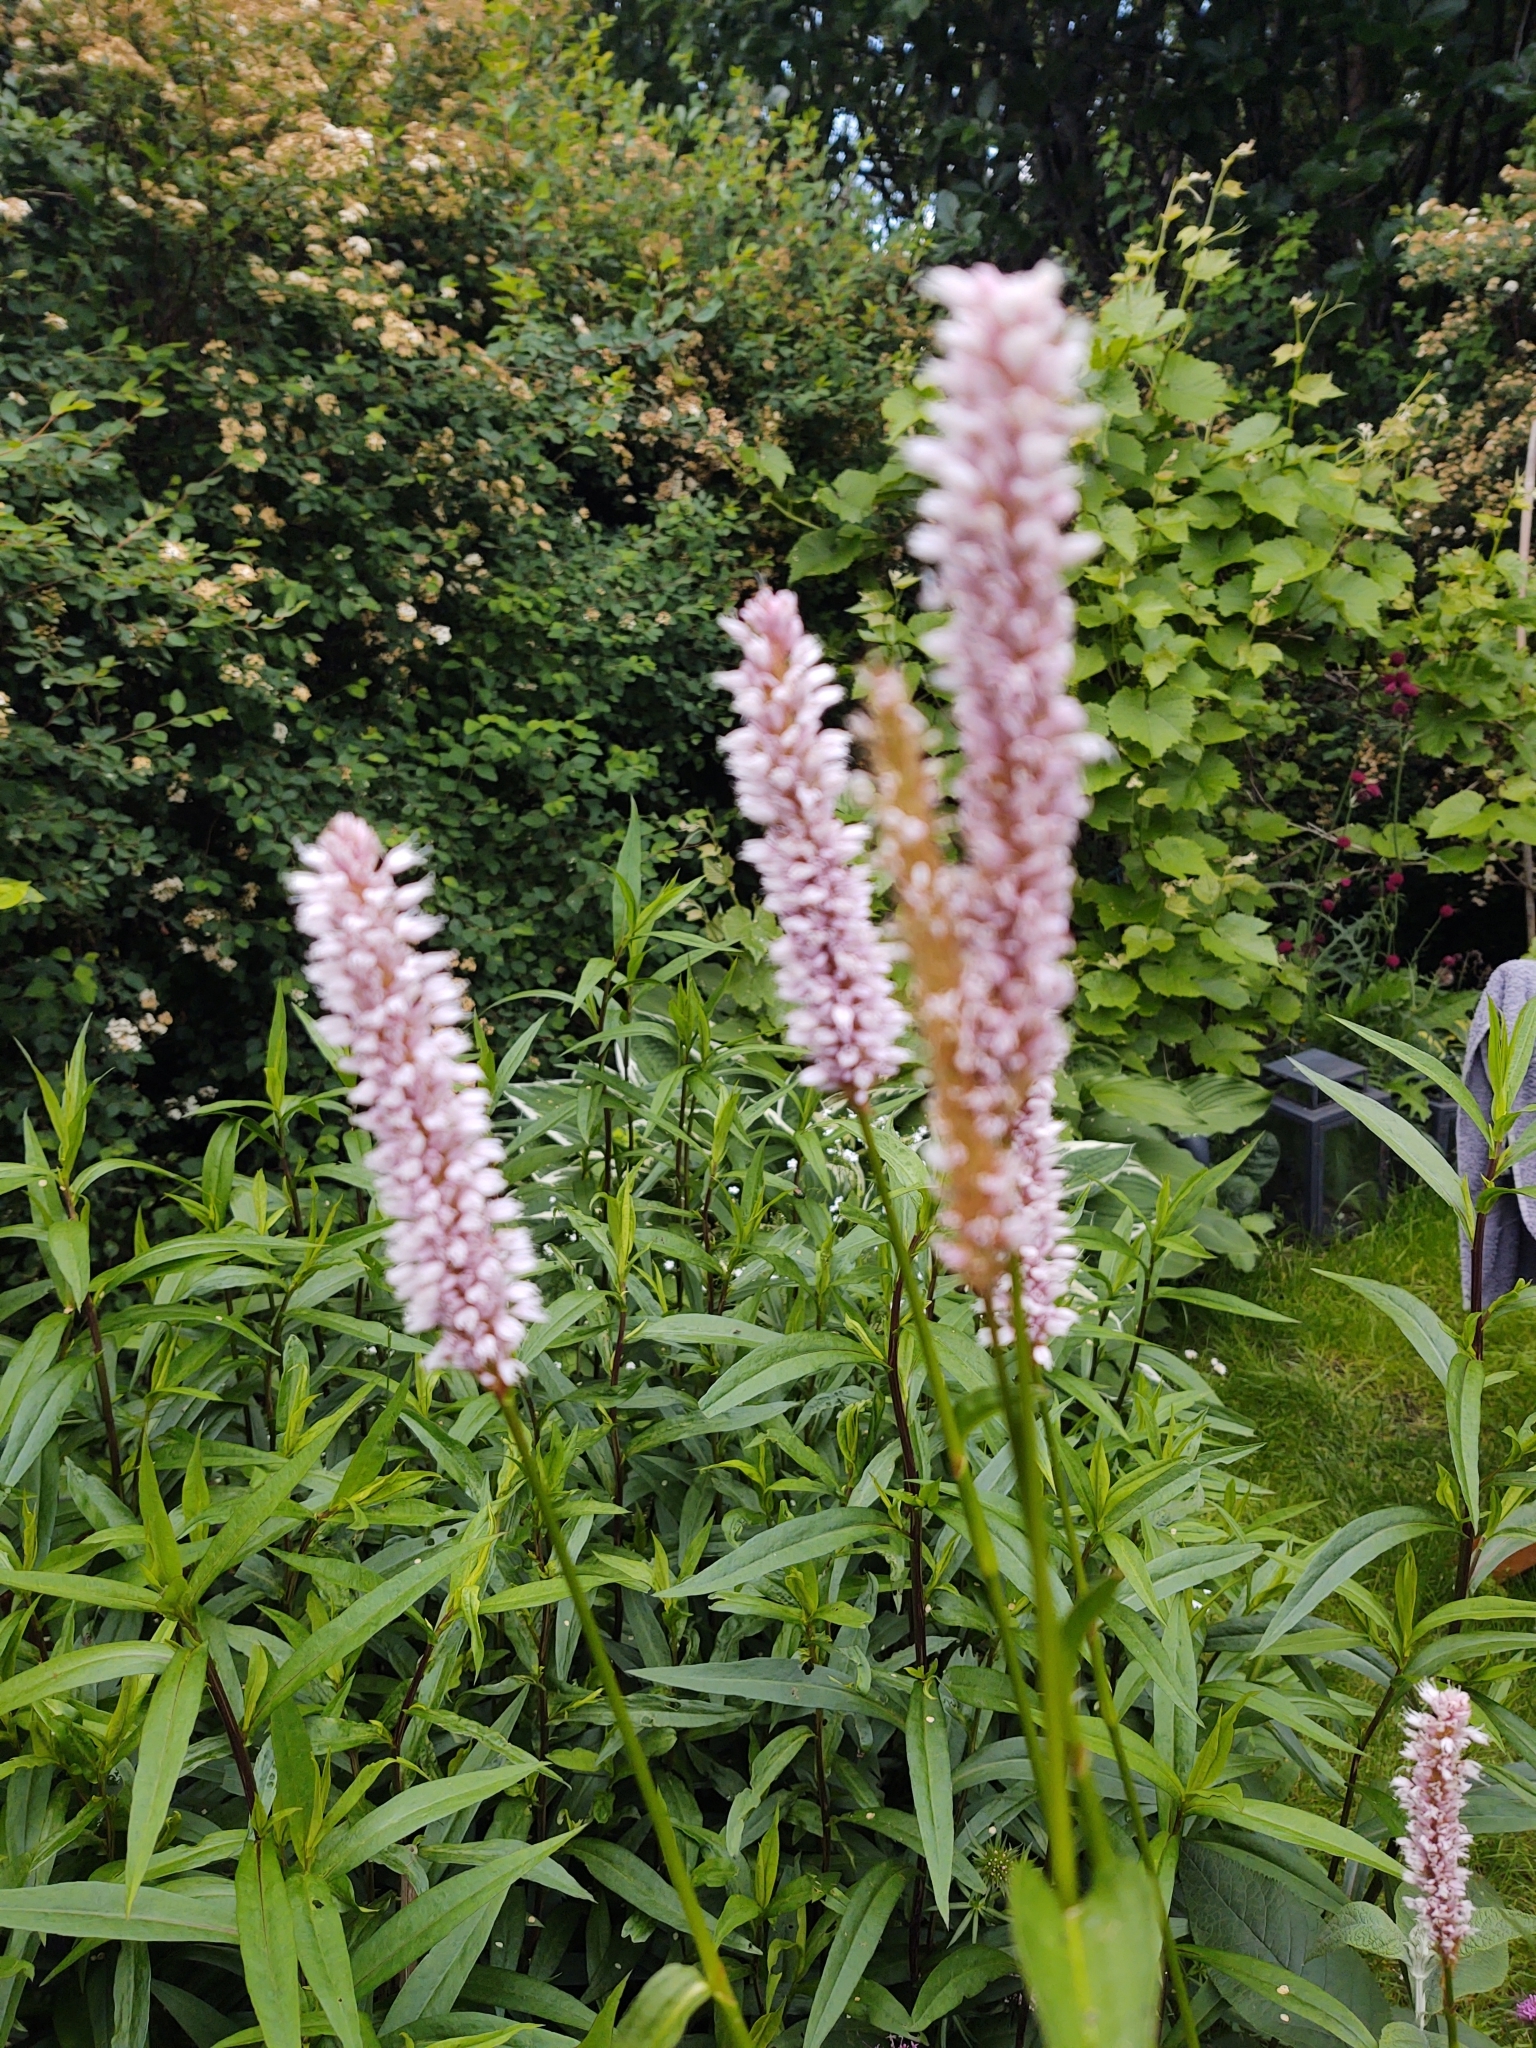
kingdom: Plantae
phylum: Tracheophyta
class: Magnoliopsida
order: Caryophyllales
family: Polygonaceae
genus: Bistorta
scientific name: Bistorta officinalis
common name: Common bistort
